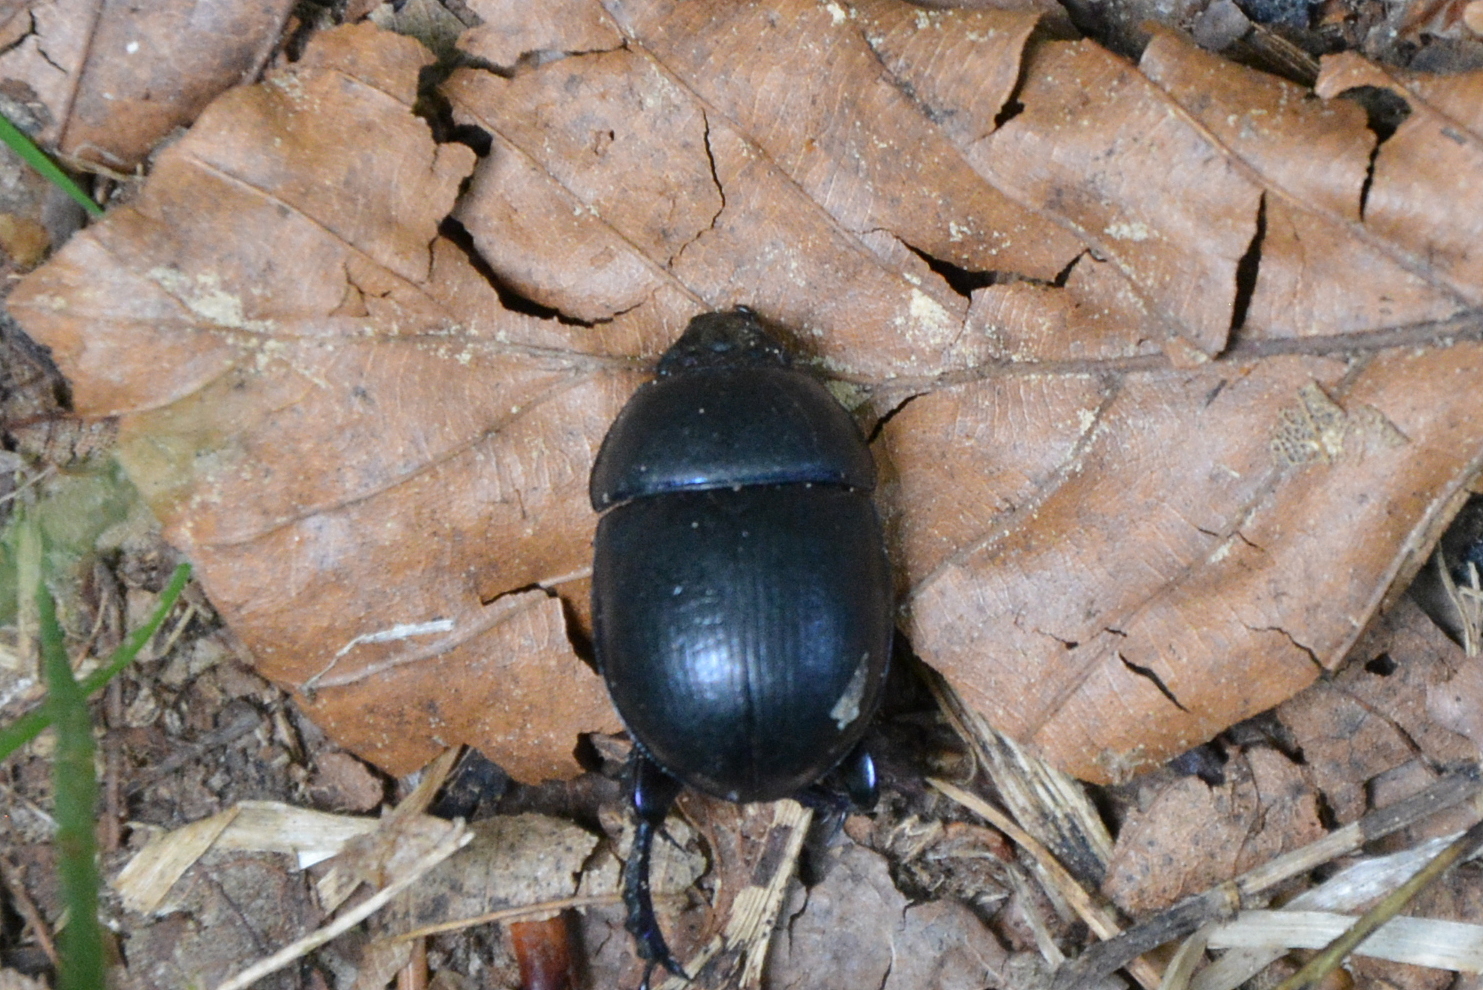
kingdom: Animalia
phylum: Arthropoda
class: Insecta
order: Coleoptera
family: Geotrupidae
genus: Anoplotrupes
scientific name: Anoplotrupes stercorosus
